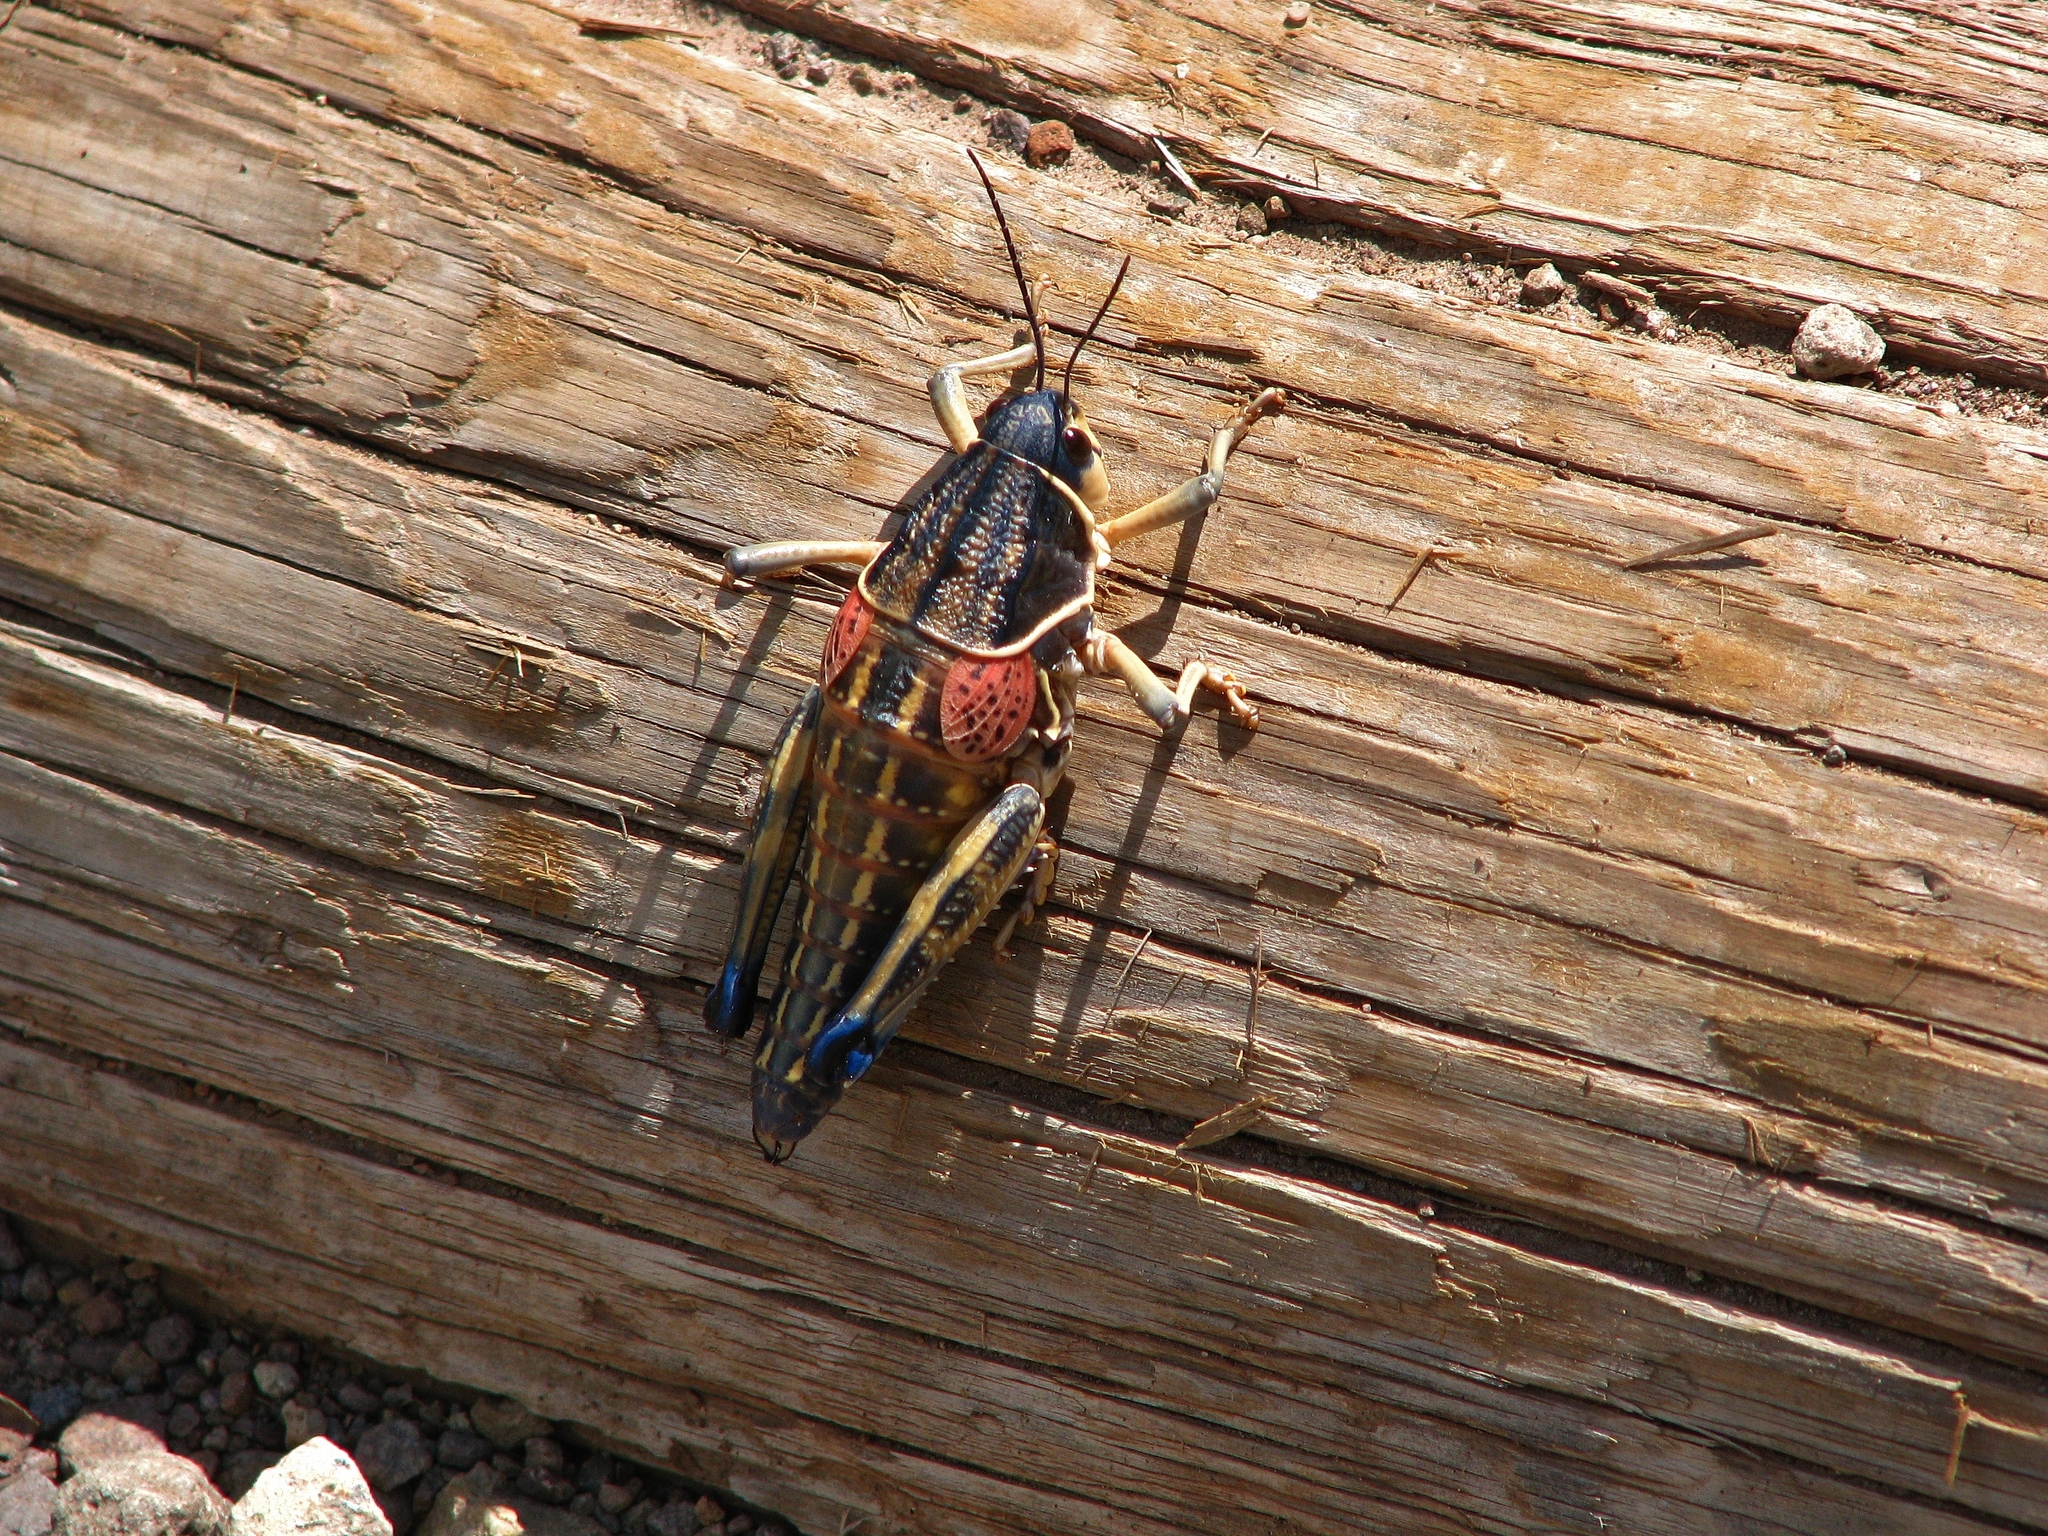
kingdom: Animalia
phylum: Arthropoda
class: Insecta
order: Orthoptera
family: Romaleidae
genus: Brachystola
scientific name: Brachystola magna
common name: Plains lubber grasshopper
